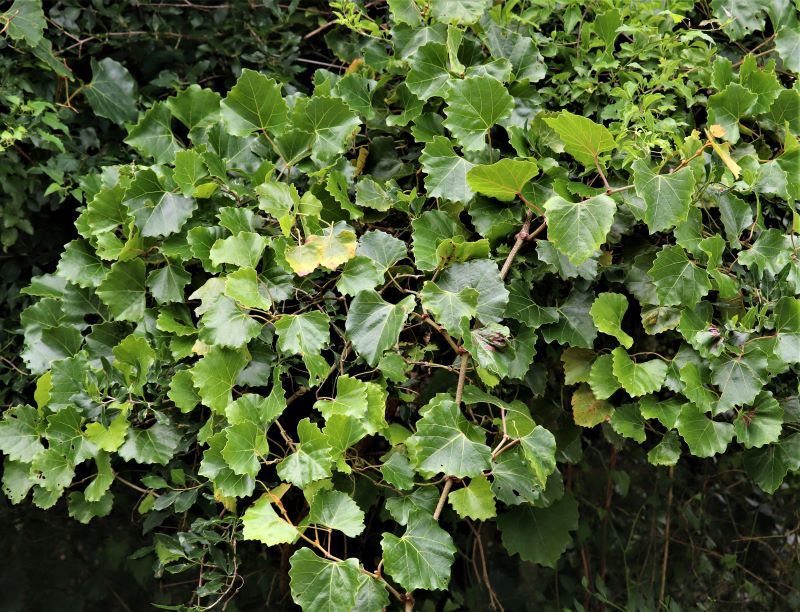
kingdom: Plantae
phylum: Tracheophyta
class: Magnoliopsida
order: Vitales
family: Vitaceae
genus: Rhoicissus
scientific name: Rhoicissus tomentosa
